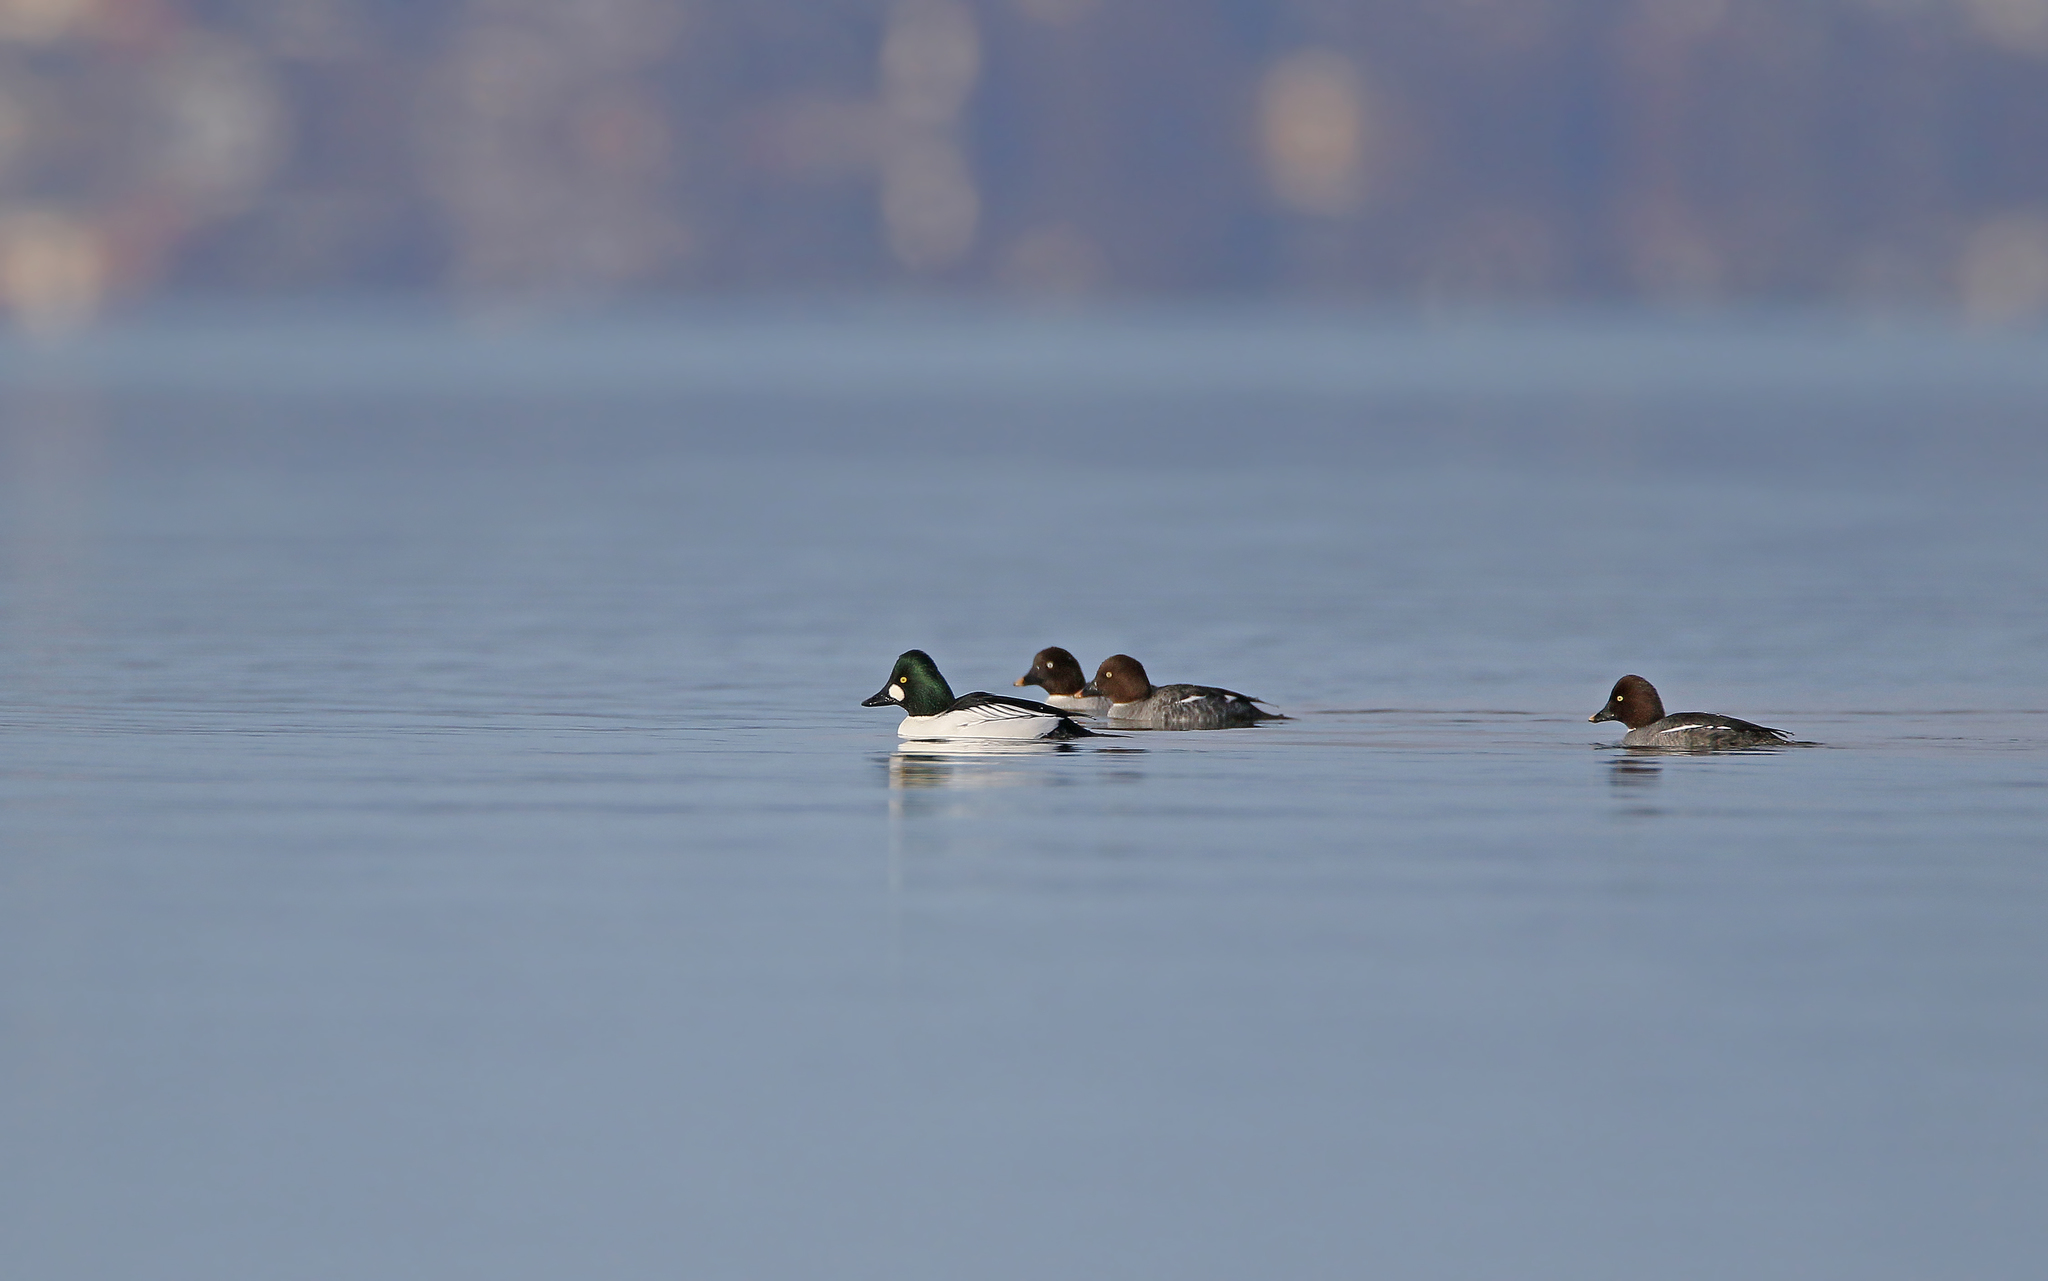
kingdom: Animalia
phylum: Chordata
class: Aves
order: Anseriformes
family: Anatidae
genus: Bucephala
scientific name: Bucephala clangula
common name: Common goldeneye
